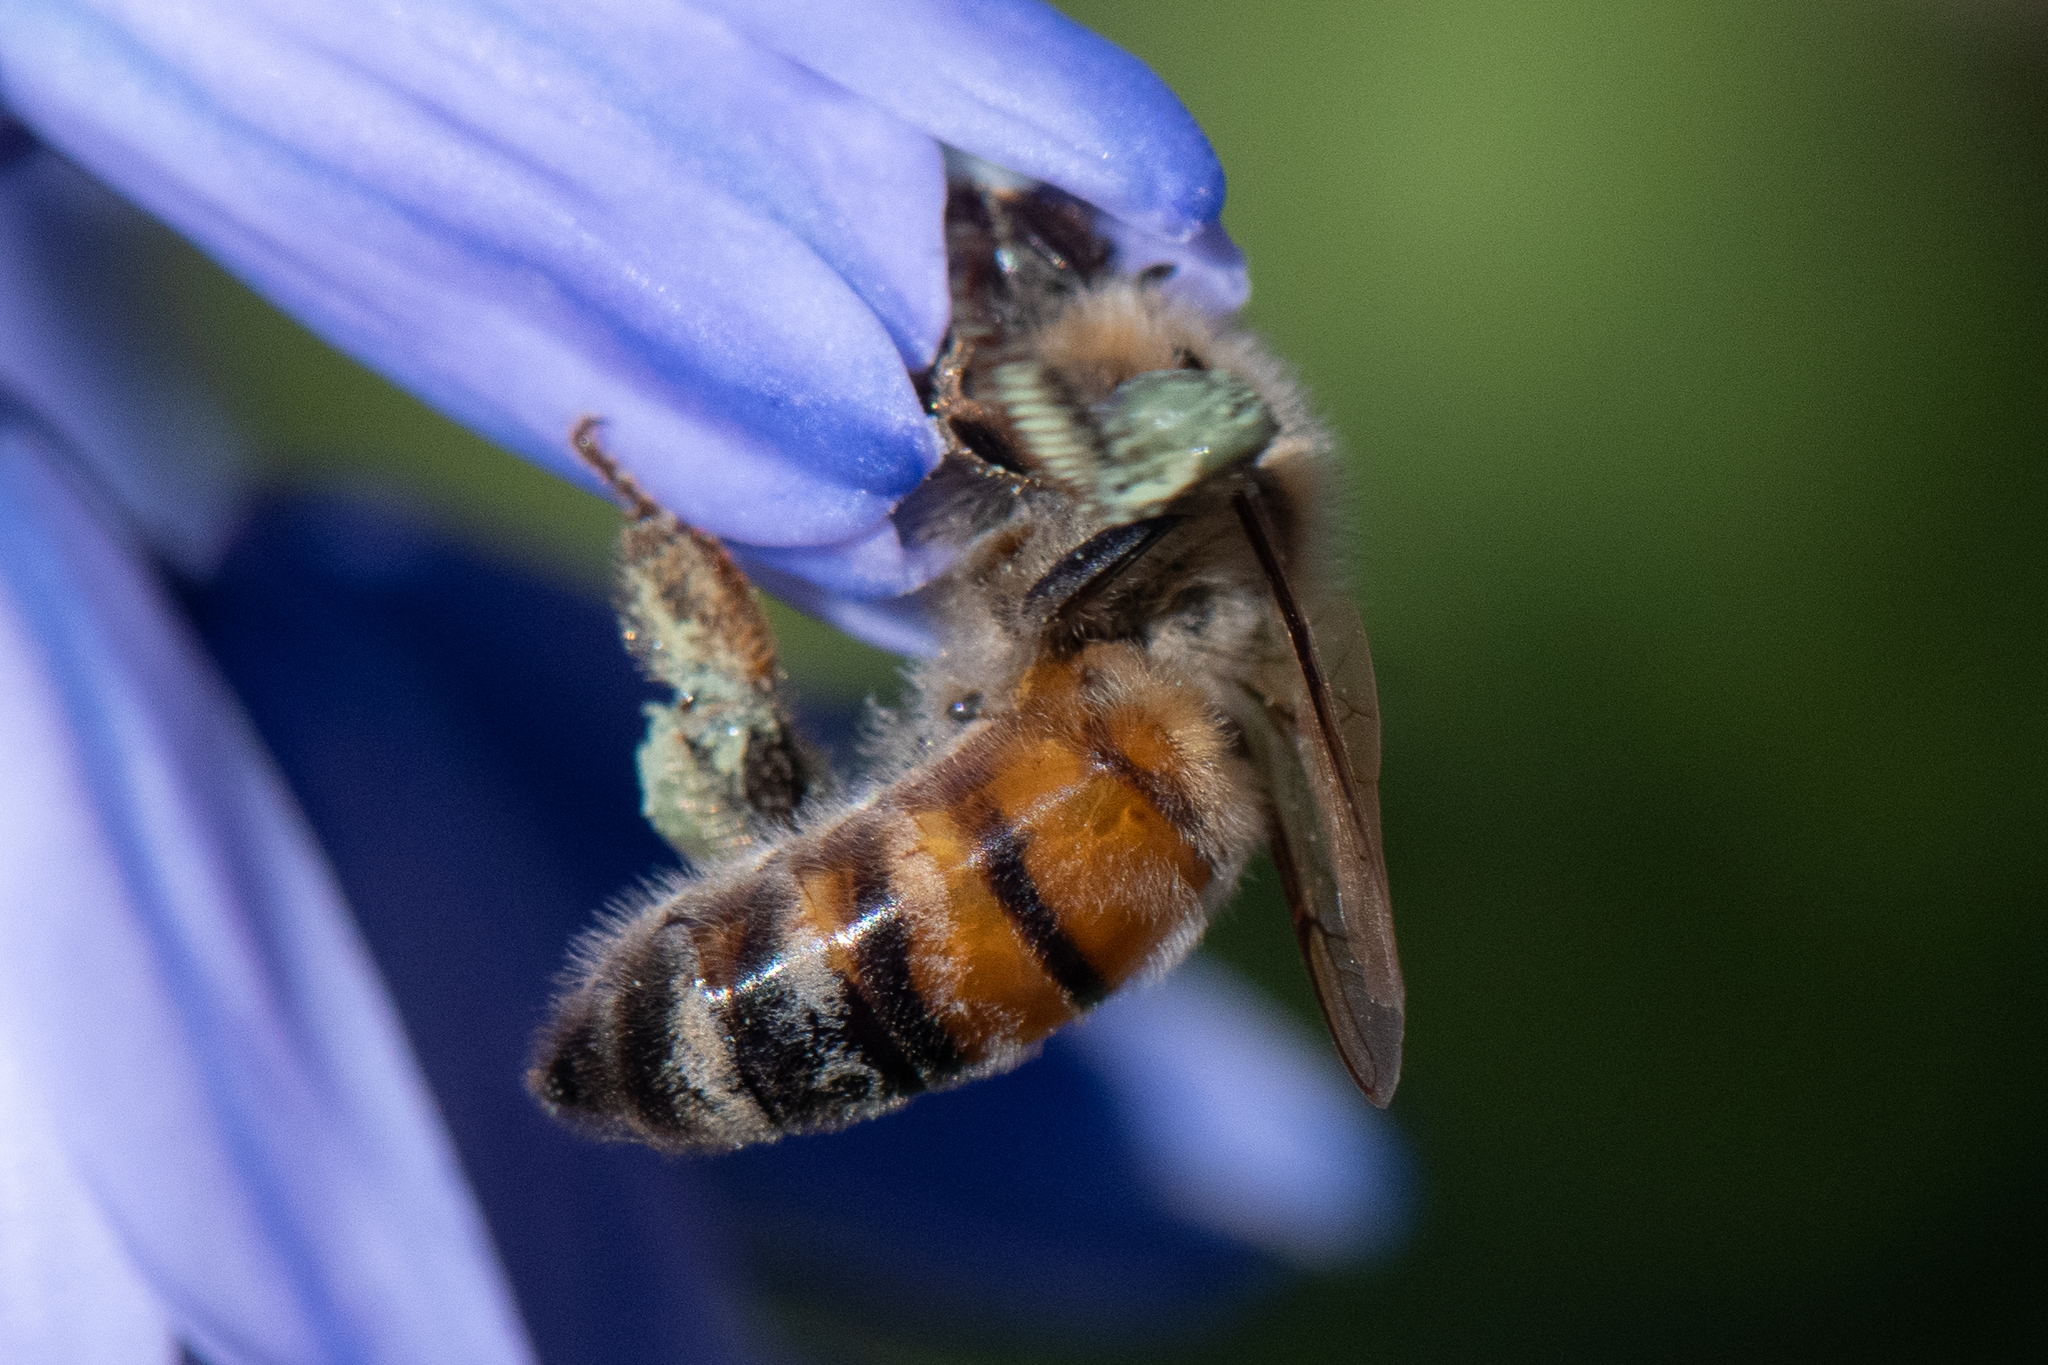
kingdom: Animalia
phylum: Arthropoda
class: Insecta
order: Hymenoptera
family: Apidae
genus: Apis
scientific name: Apis mellifera
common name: Honey bee
